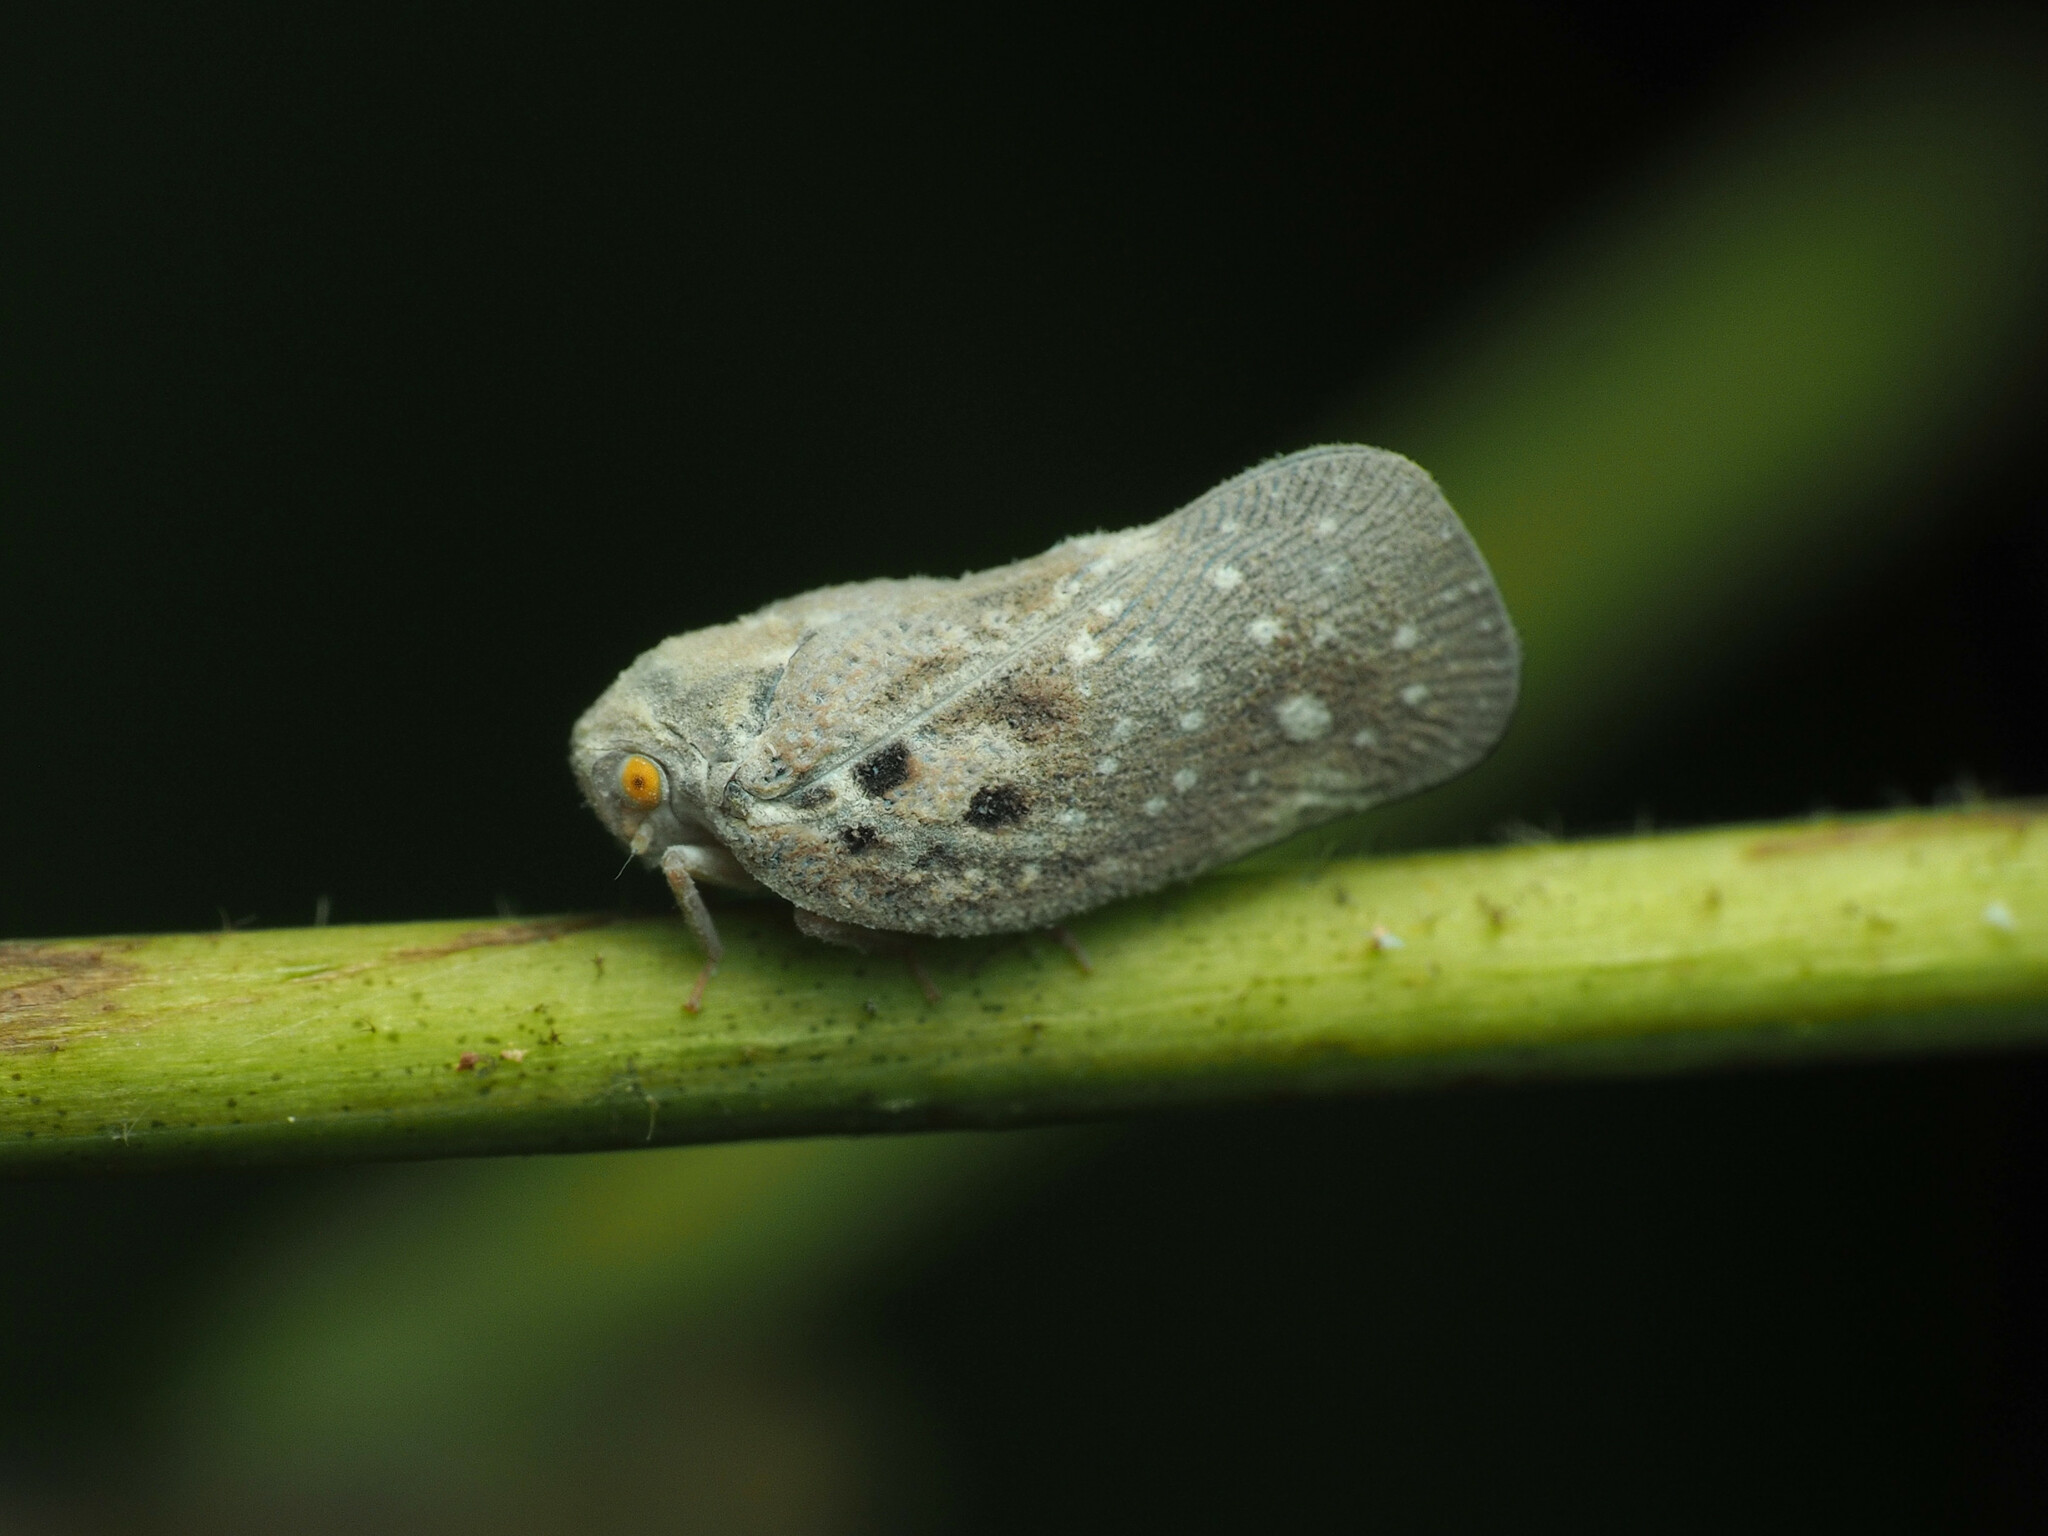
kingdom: Animalia
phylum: Arthropoda
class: Insecta
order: Hemiptera
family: Flatidae
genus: Metcalfa
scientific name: Metcalfa pruinosa
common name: Citrus flatid planthopper
